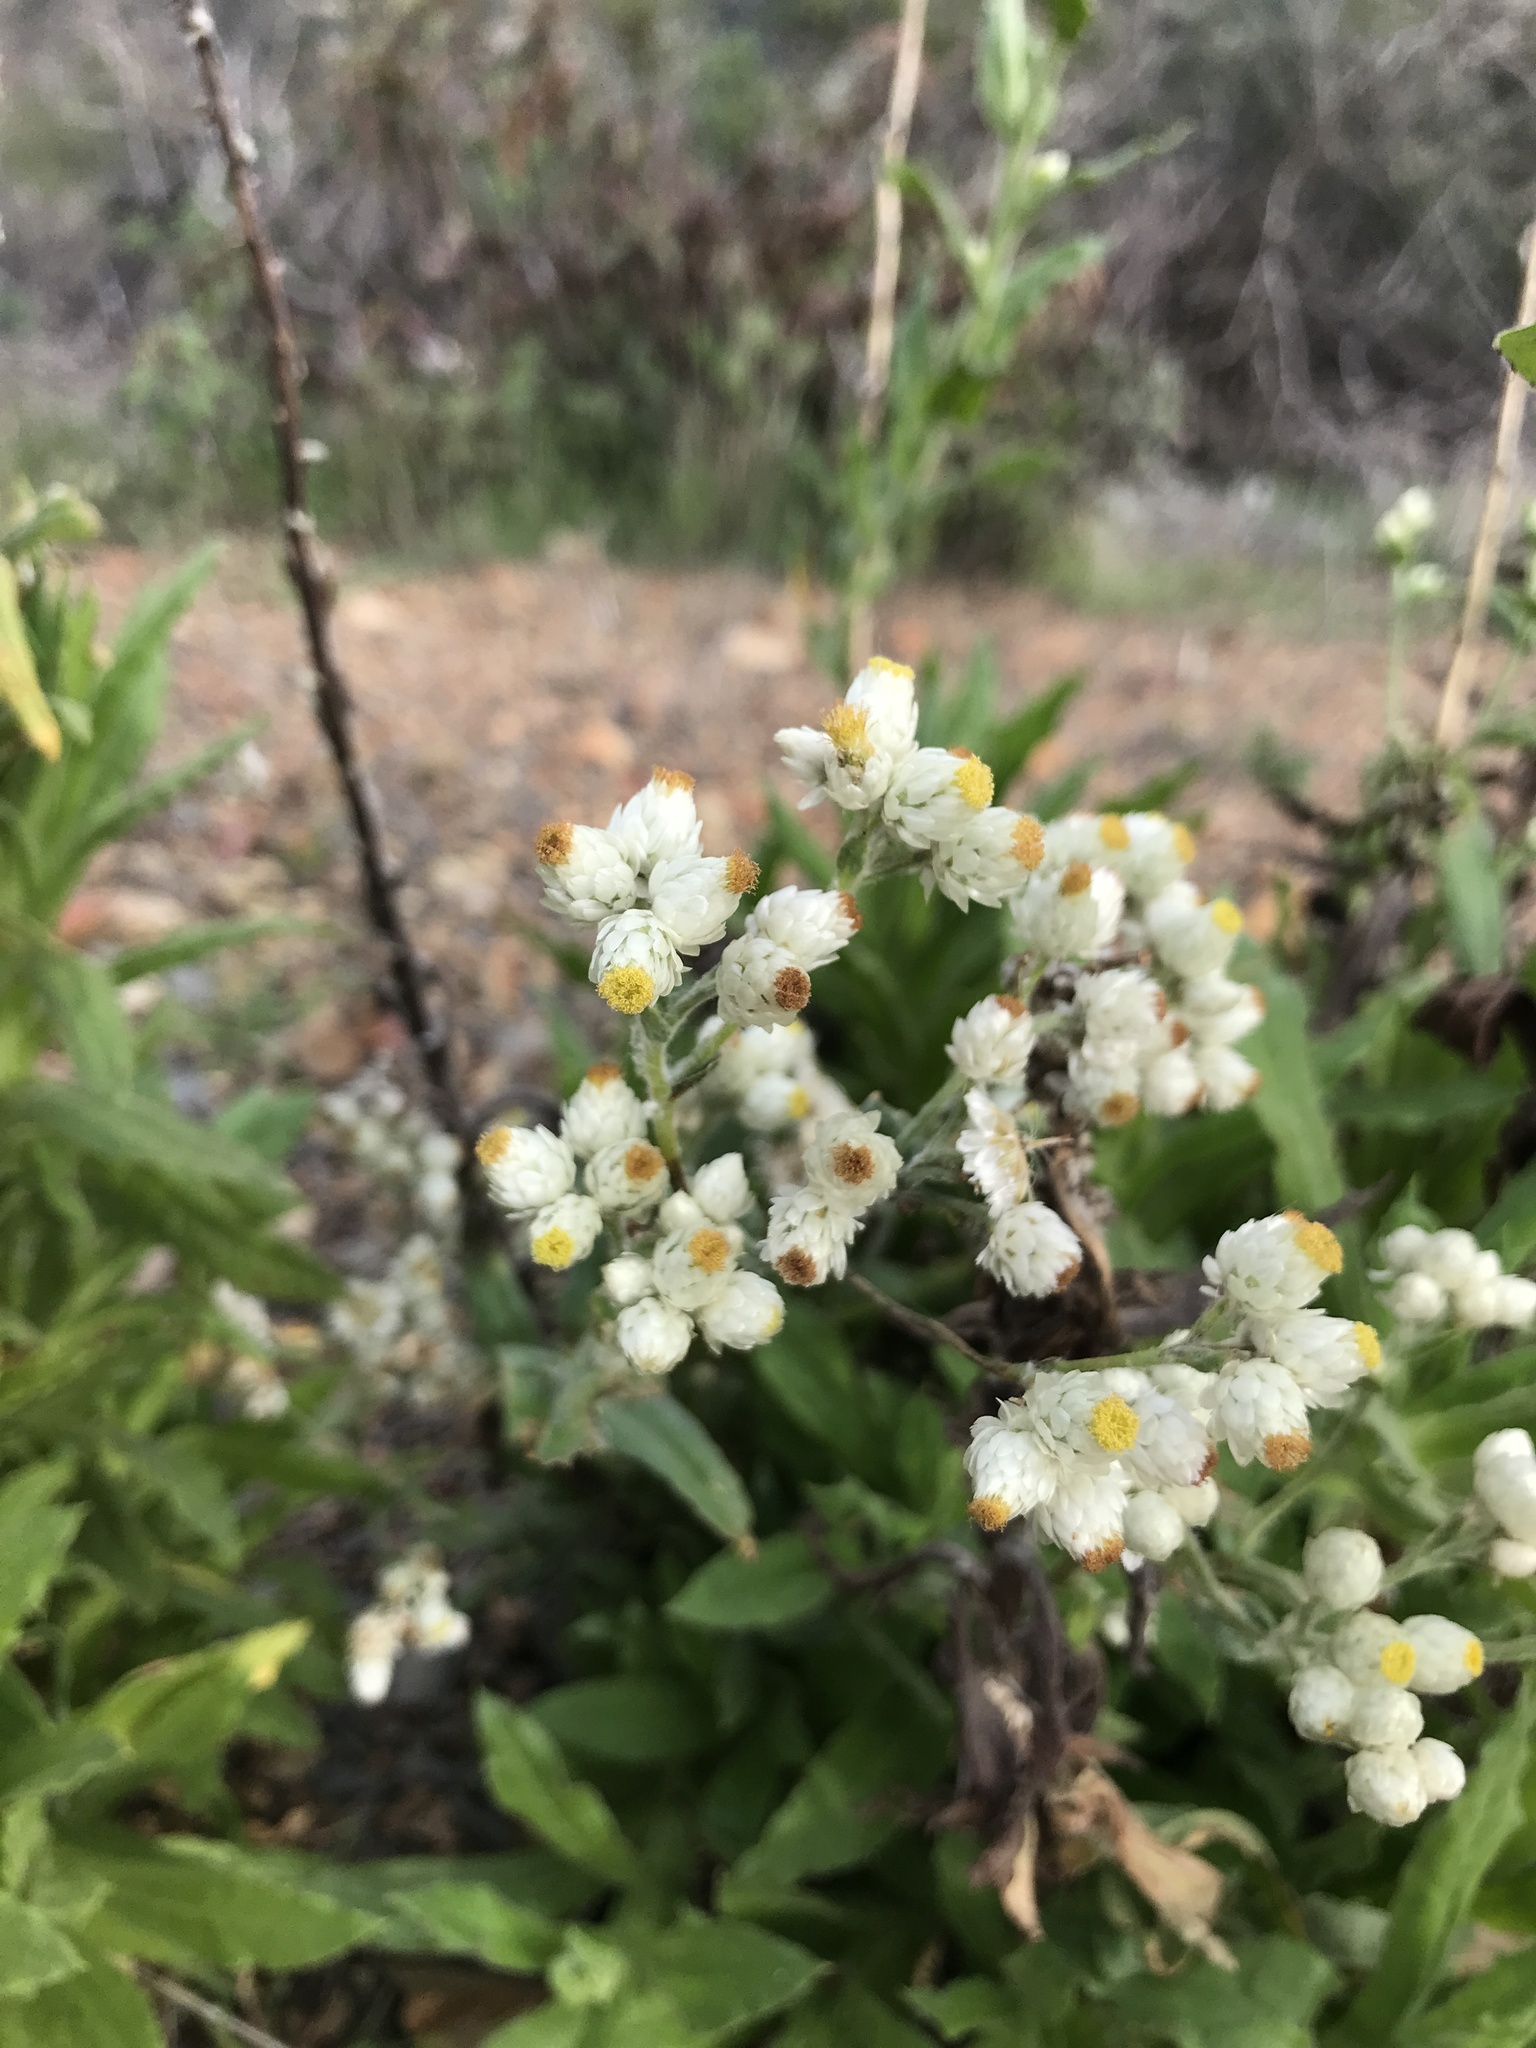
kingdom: Plantae
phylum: Tracheophyta
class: Magnoliopsida
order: Asterales
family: Asteraceae
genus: Pseudognaphalium
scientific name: Pseudognaphalium californicum
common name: California rabbit-tobacco
